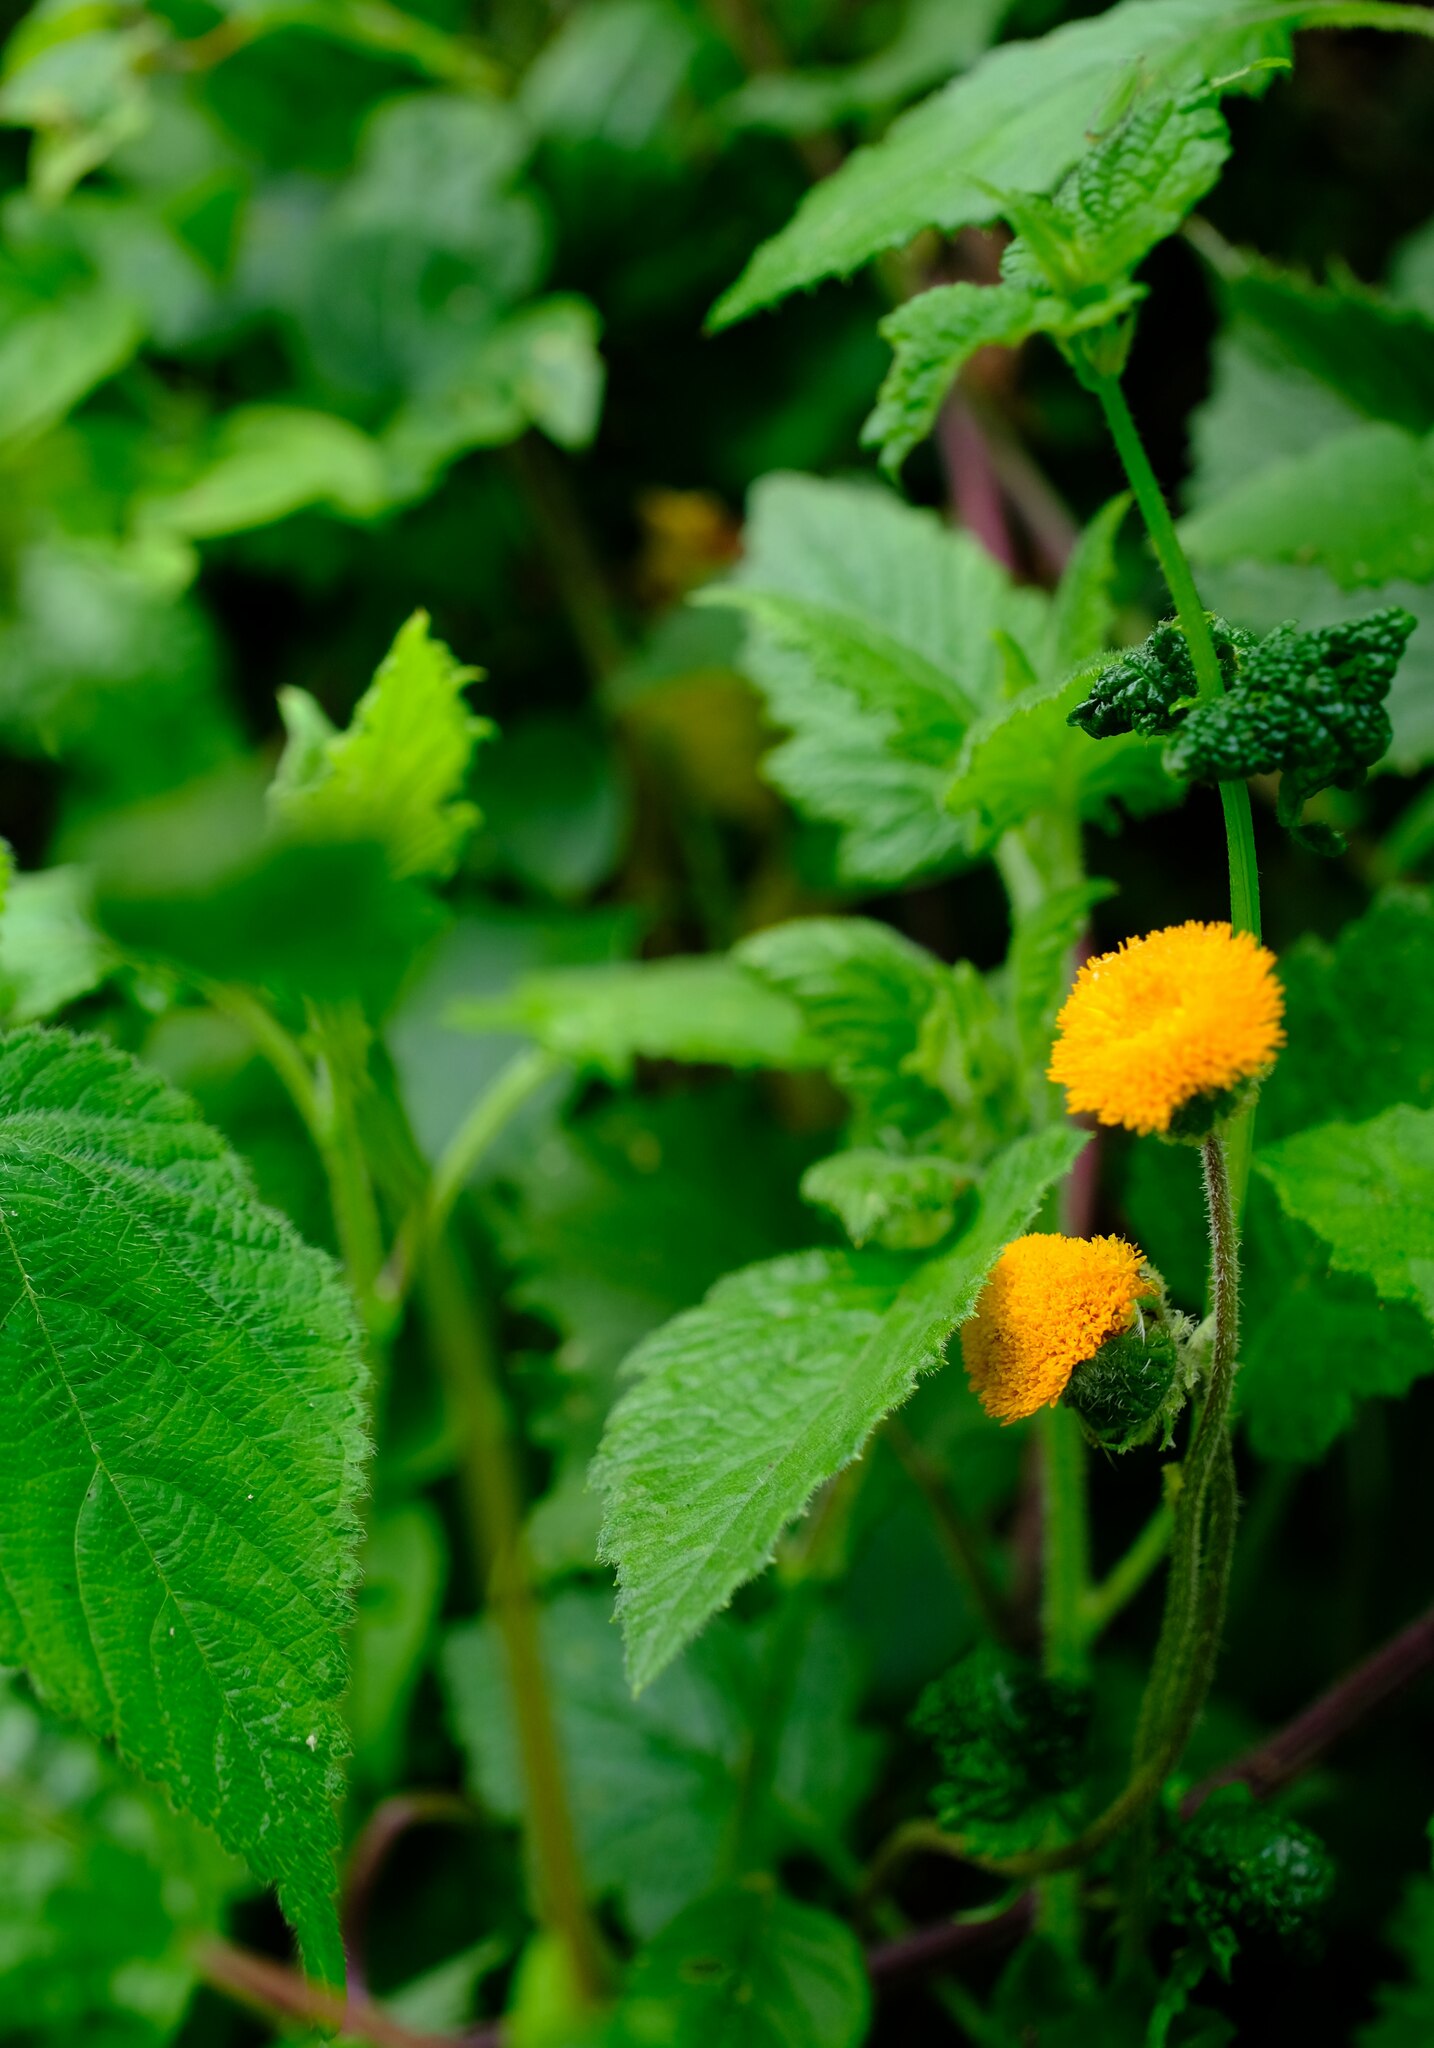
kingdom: Plantae
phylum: Tracheophyta
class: Magnoliopsida
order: Asterales
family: Asteraceae
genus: Crassocephalum
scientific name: Crassocephalum vitellinum
